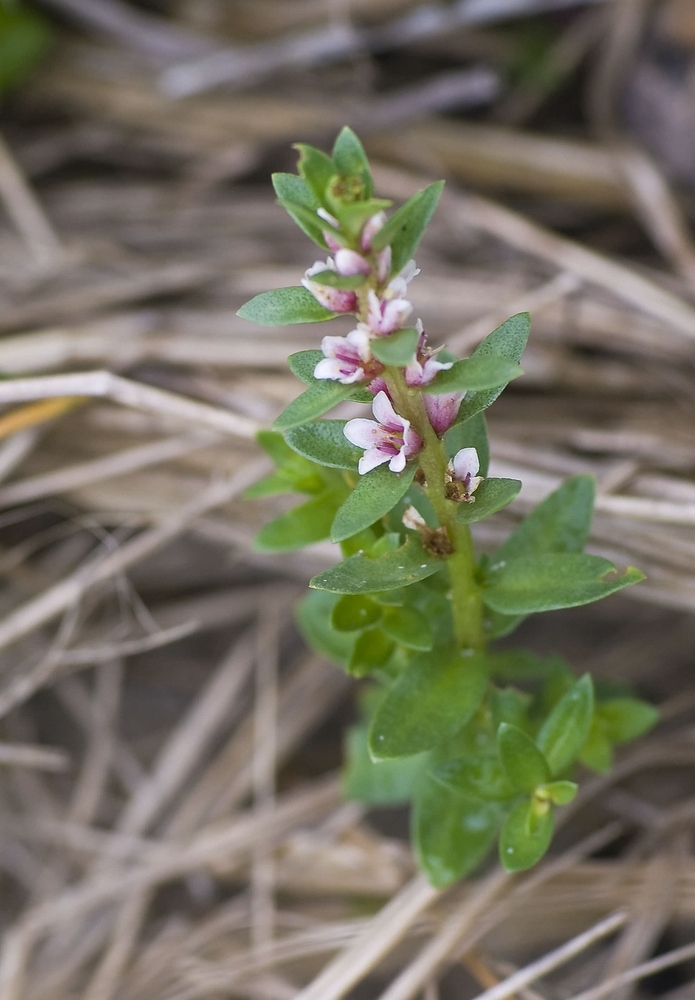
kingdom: Plantae
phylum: Tracheophyta
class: Magnoliopsida
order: Ericales
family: Primulaceae
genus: Lysimachia
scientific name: Lysimachia maritima
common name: Sea milkwort
